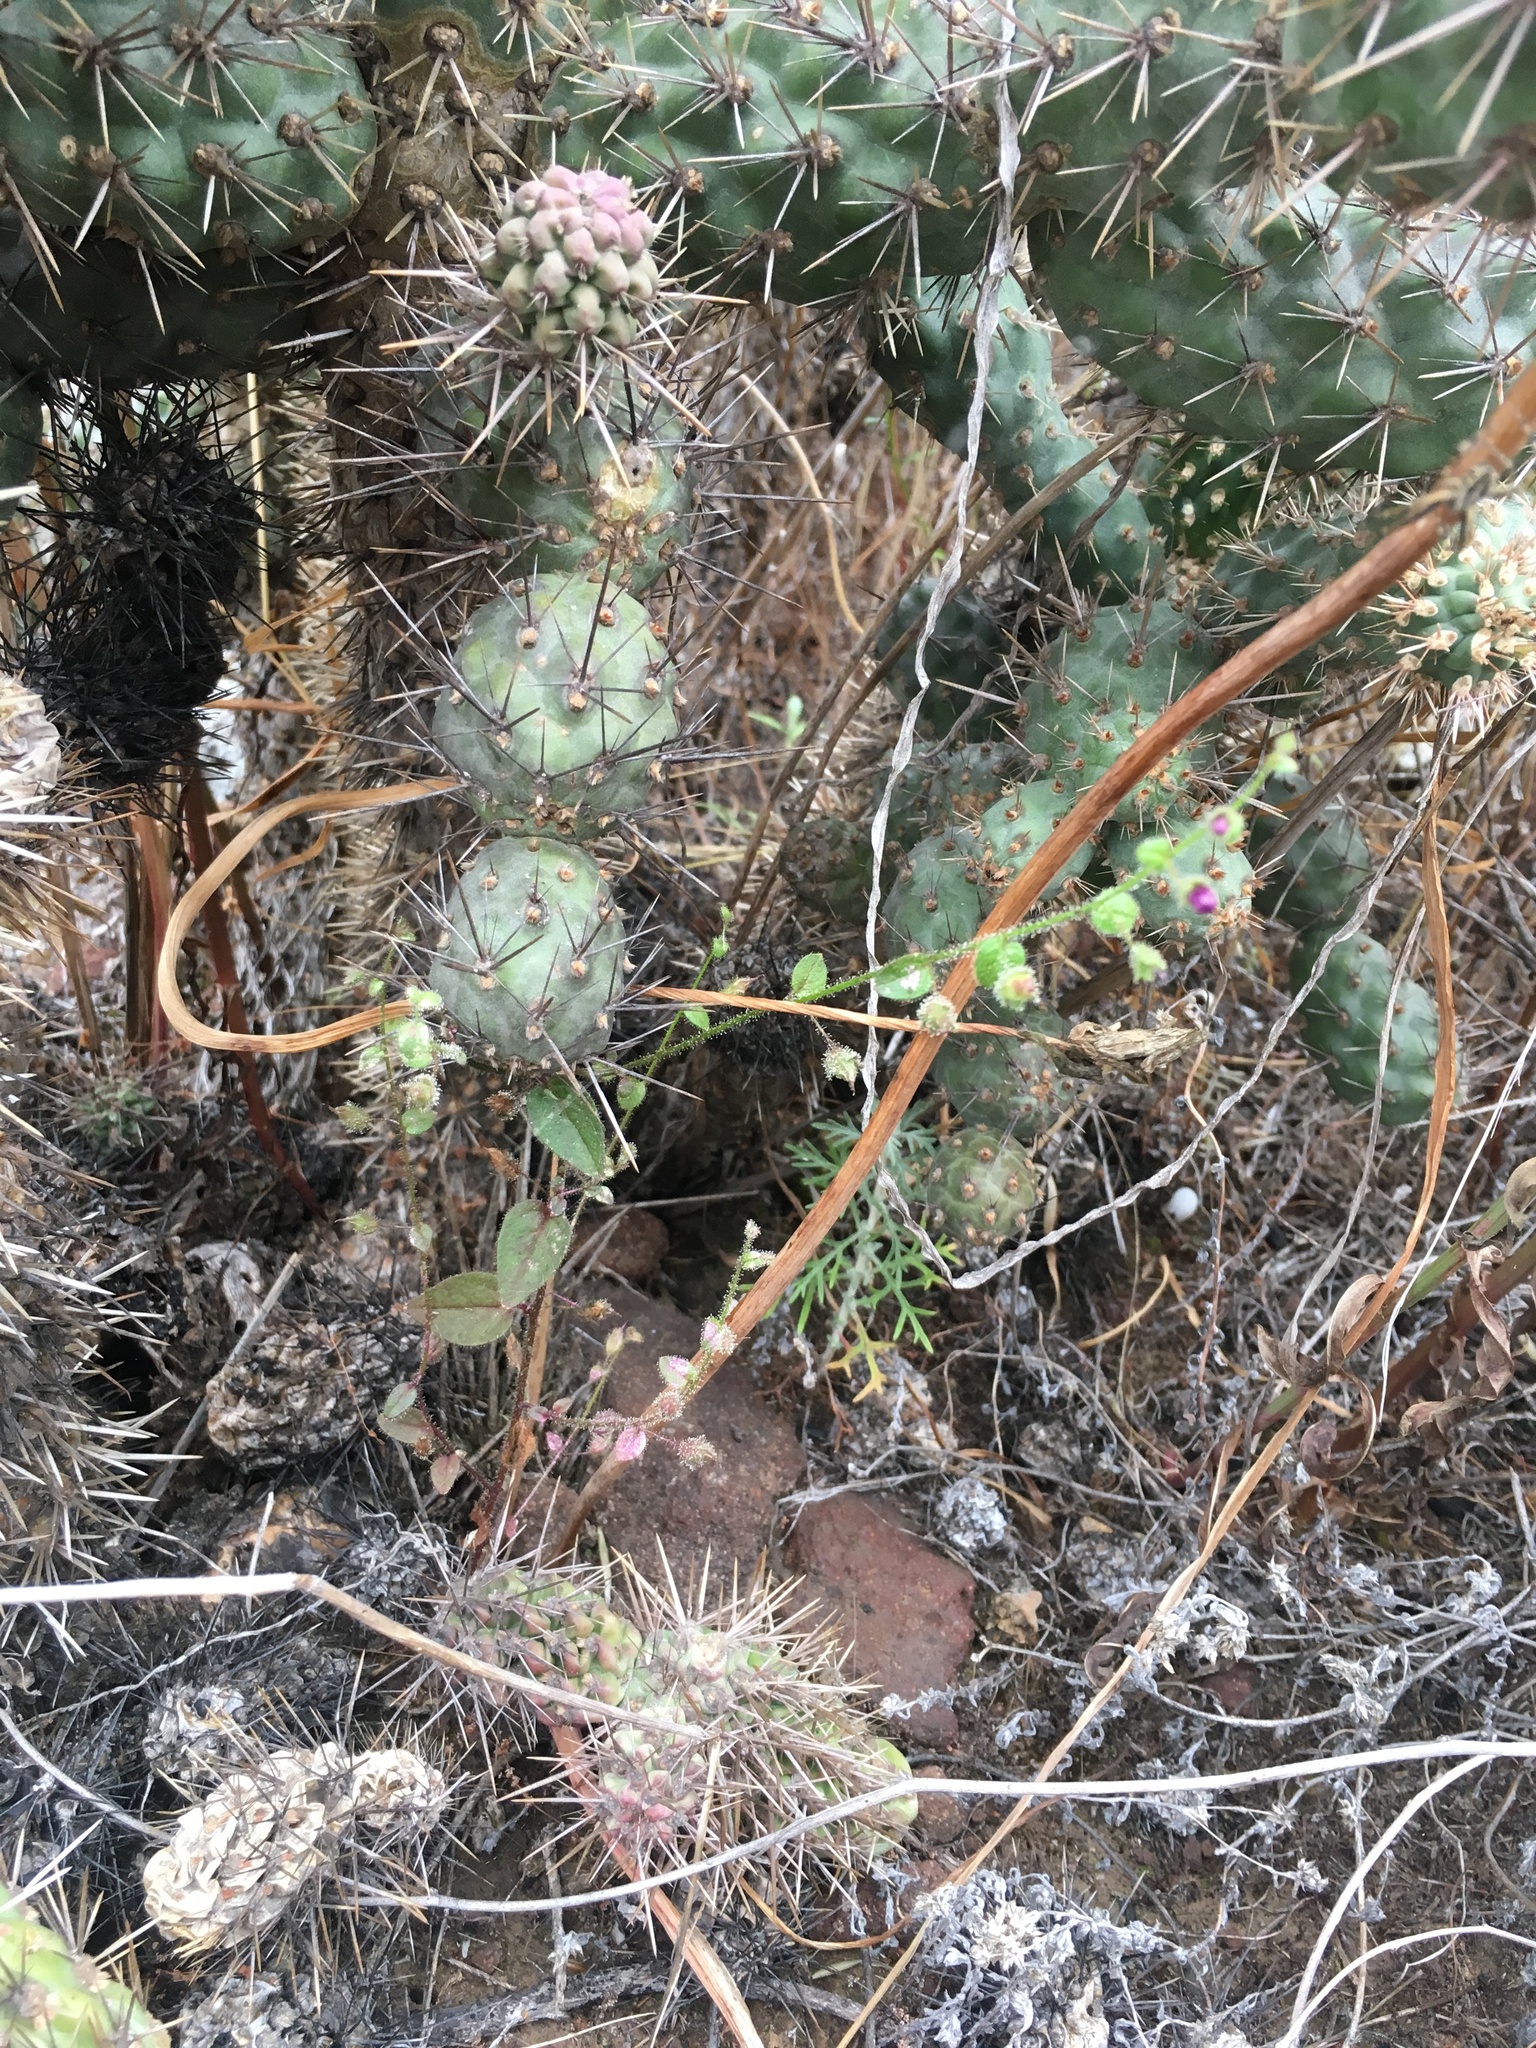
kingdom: Plantae
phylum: Tracheophyta
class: Magnoliopsida
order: Lamiales
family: Plantaginaceae
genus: Sairocarpus
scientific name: Sairocarpus nuttallianus
